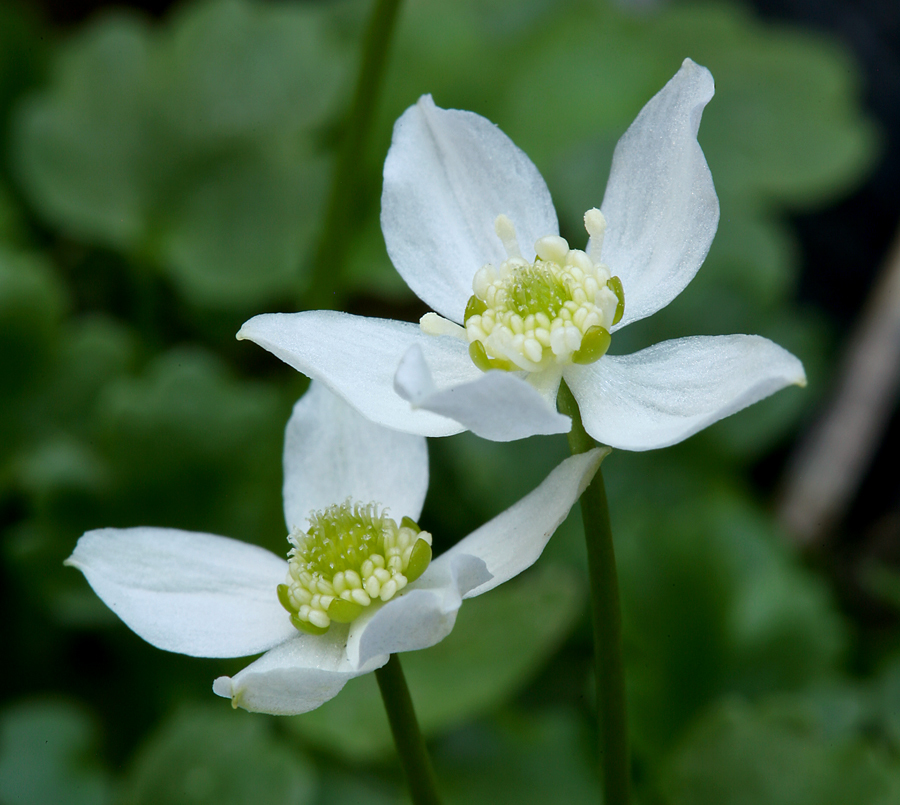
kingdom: Plantae
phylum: Tracheophyta
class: Magnoliopsida
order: Ranunculales
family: Ranunculaceae
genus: Kumlienia
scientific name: Kumlienia hystricula
